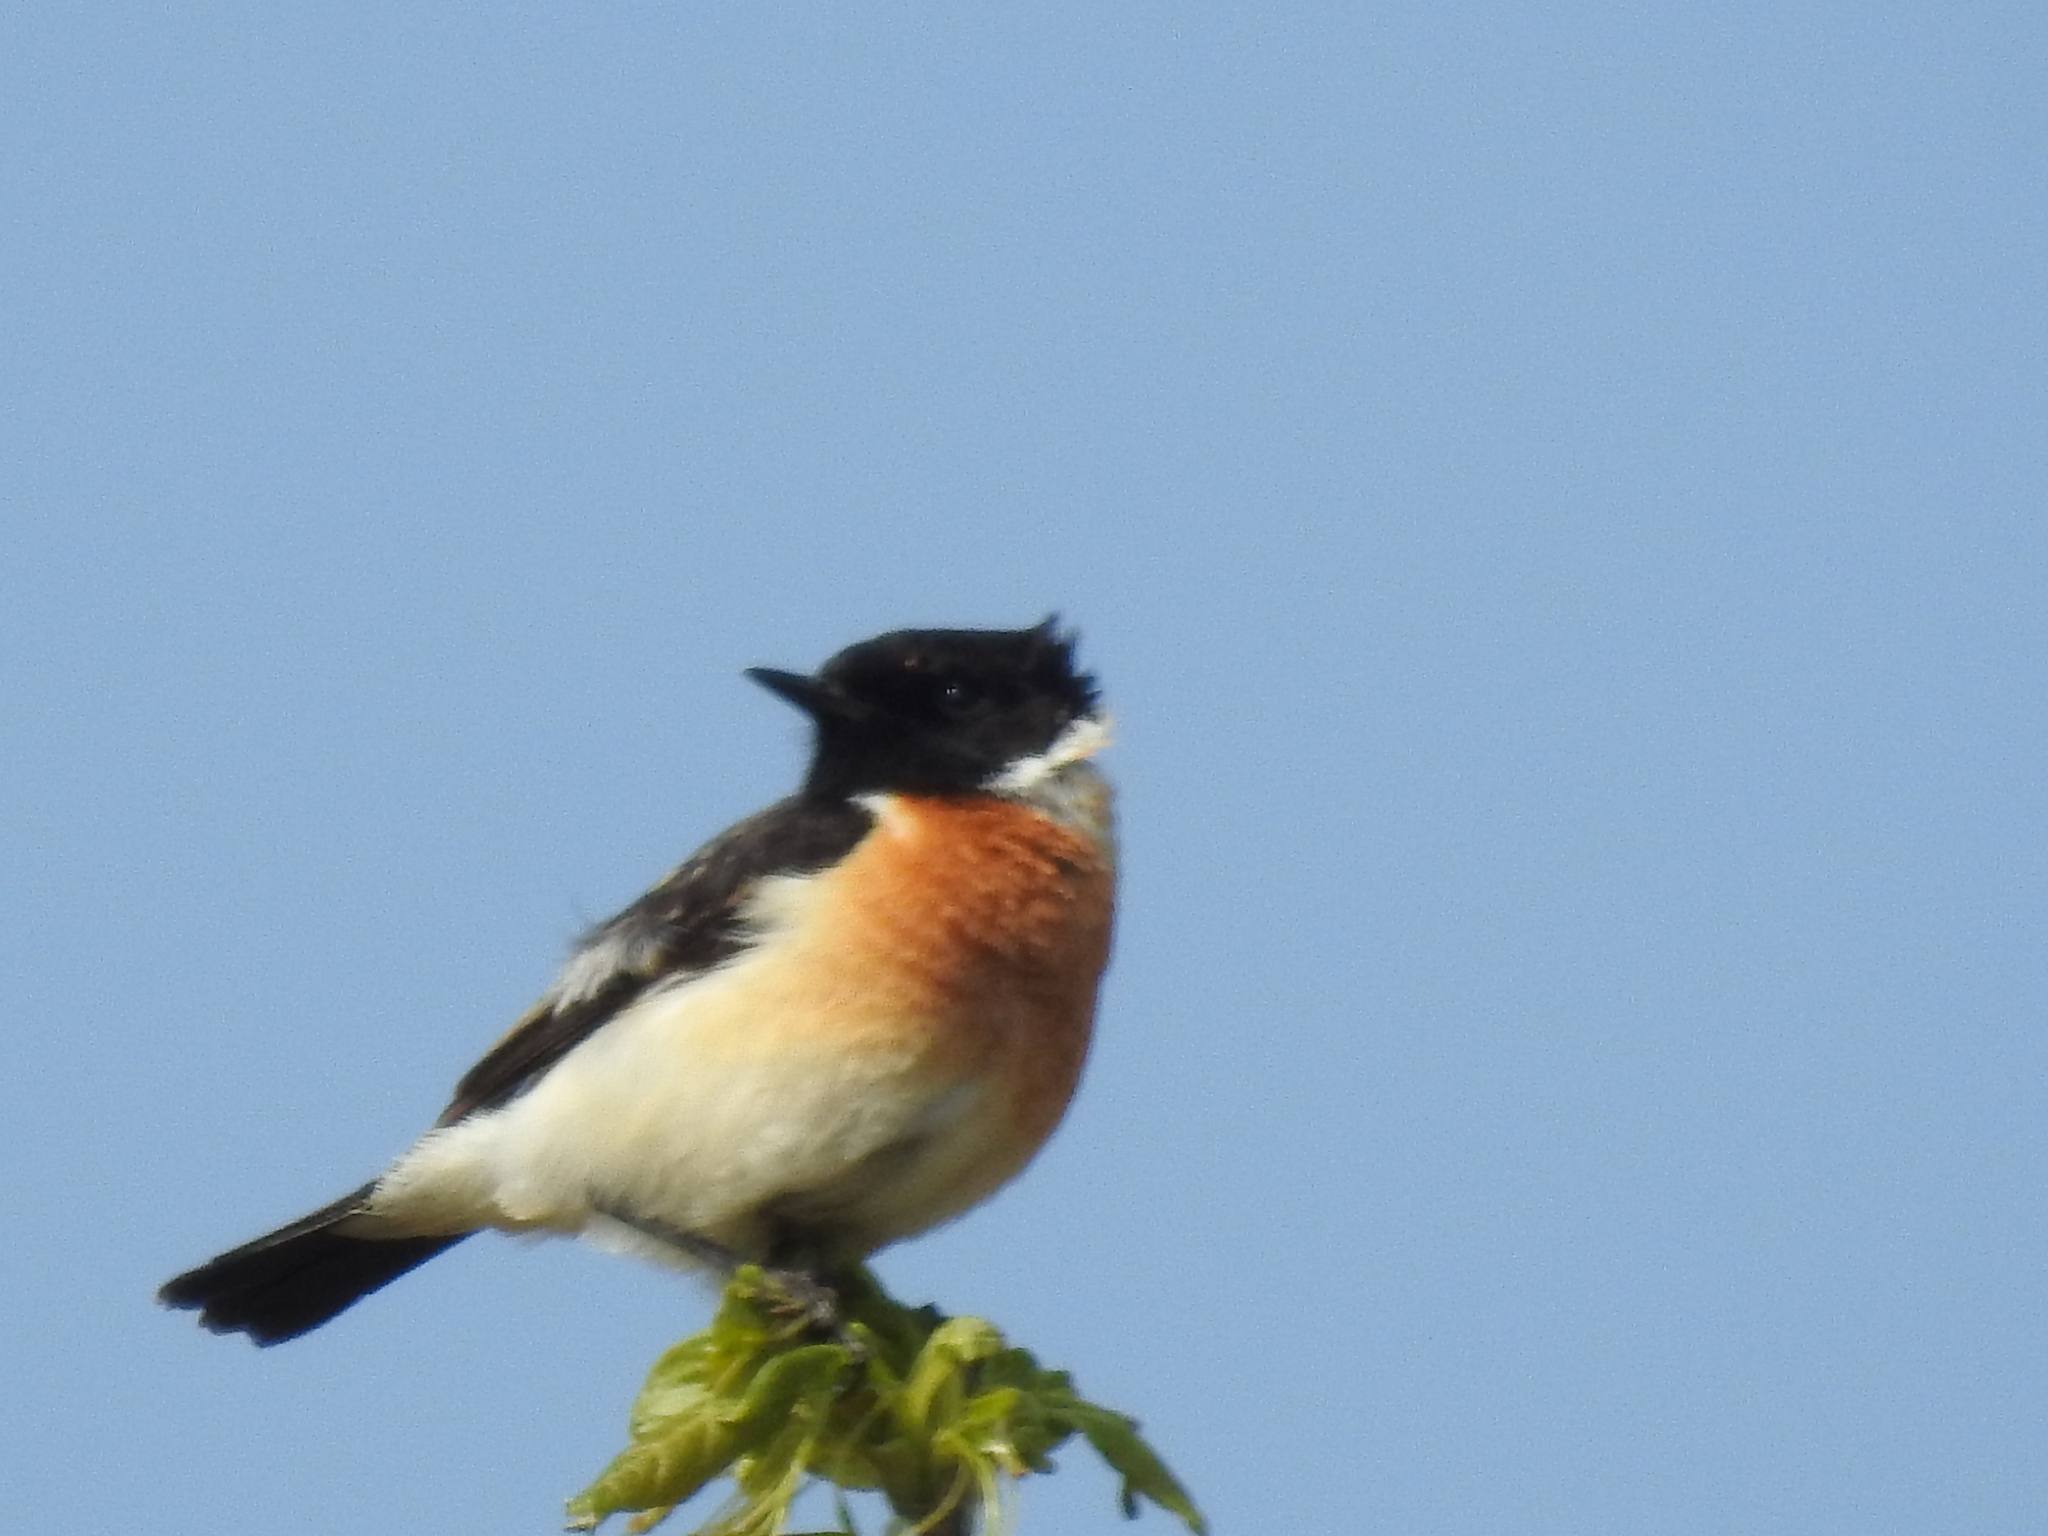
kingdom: Animalia
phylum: Chordata
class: Aves
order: Passeriformes
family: Muscicapidae
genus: Saxicola
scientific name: Saxicola maurus
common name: Siberian stonechat
